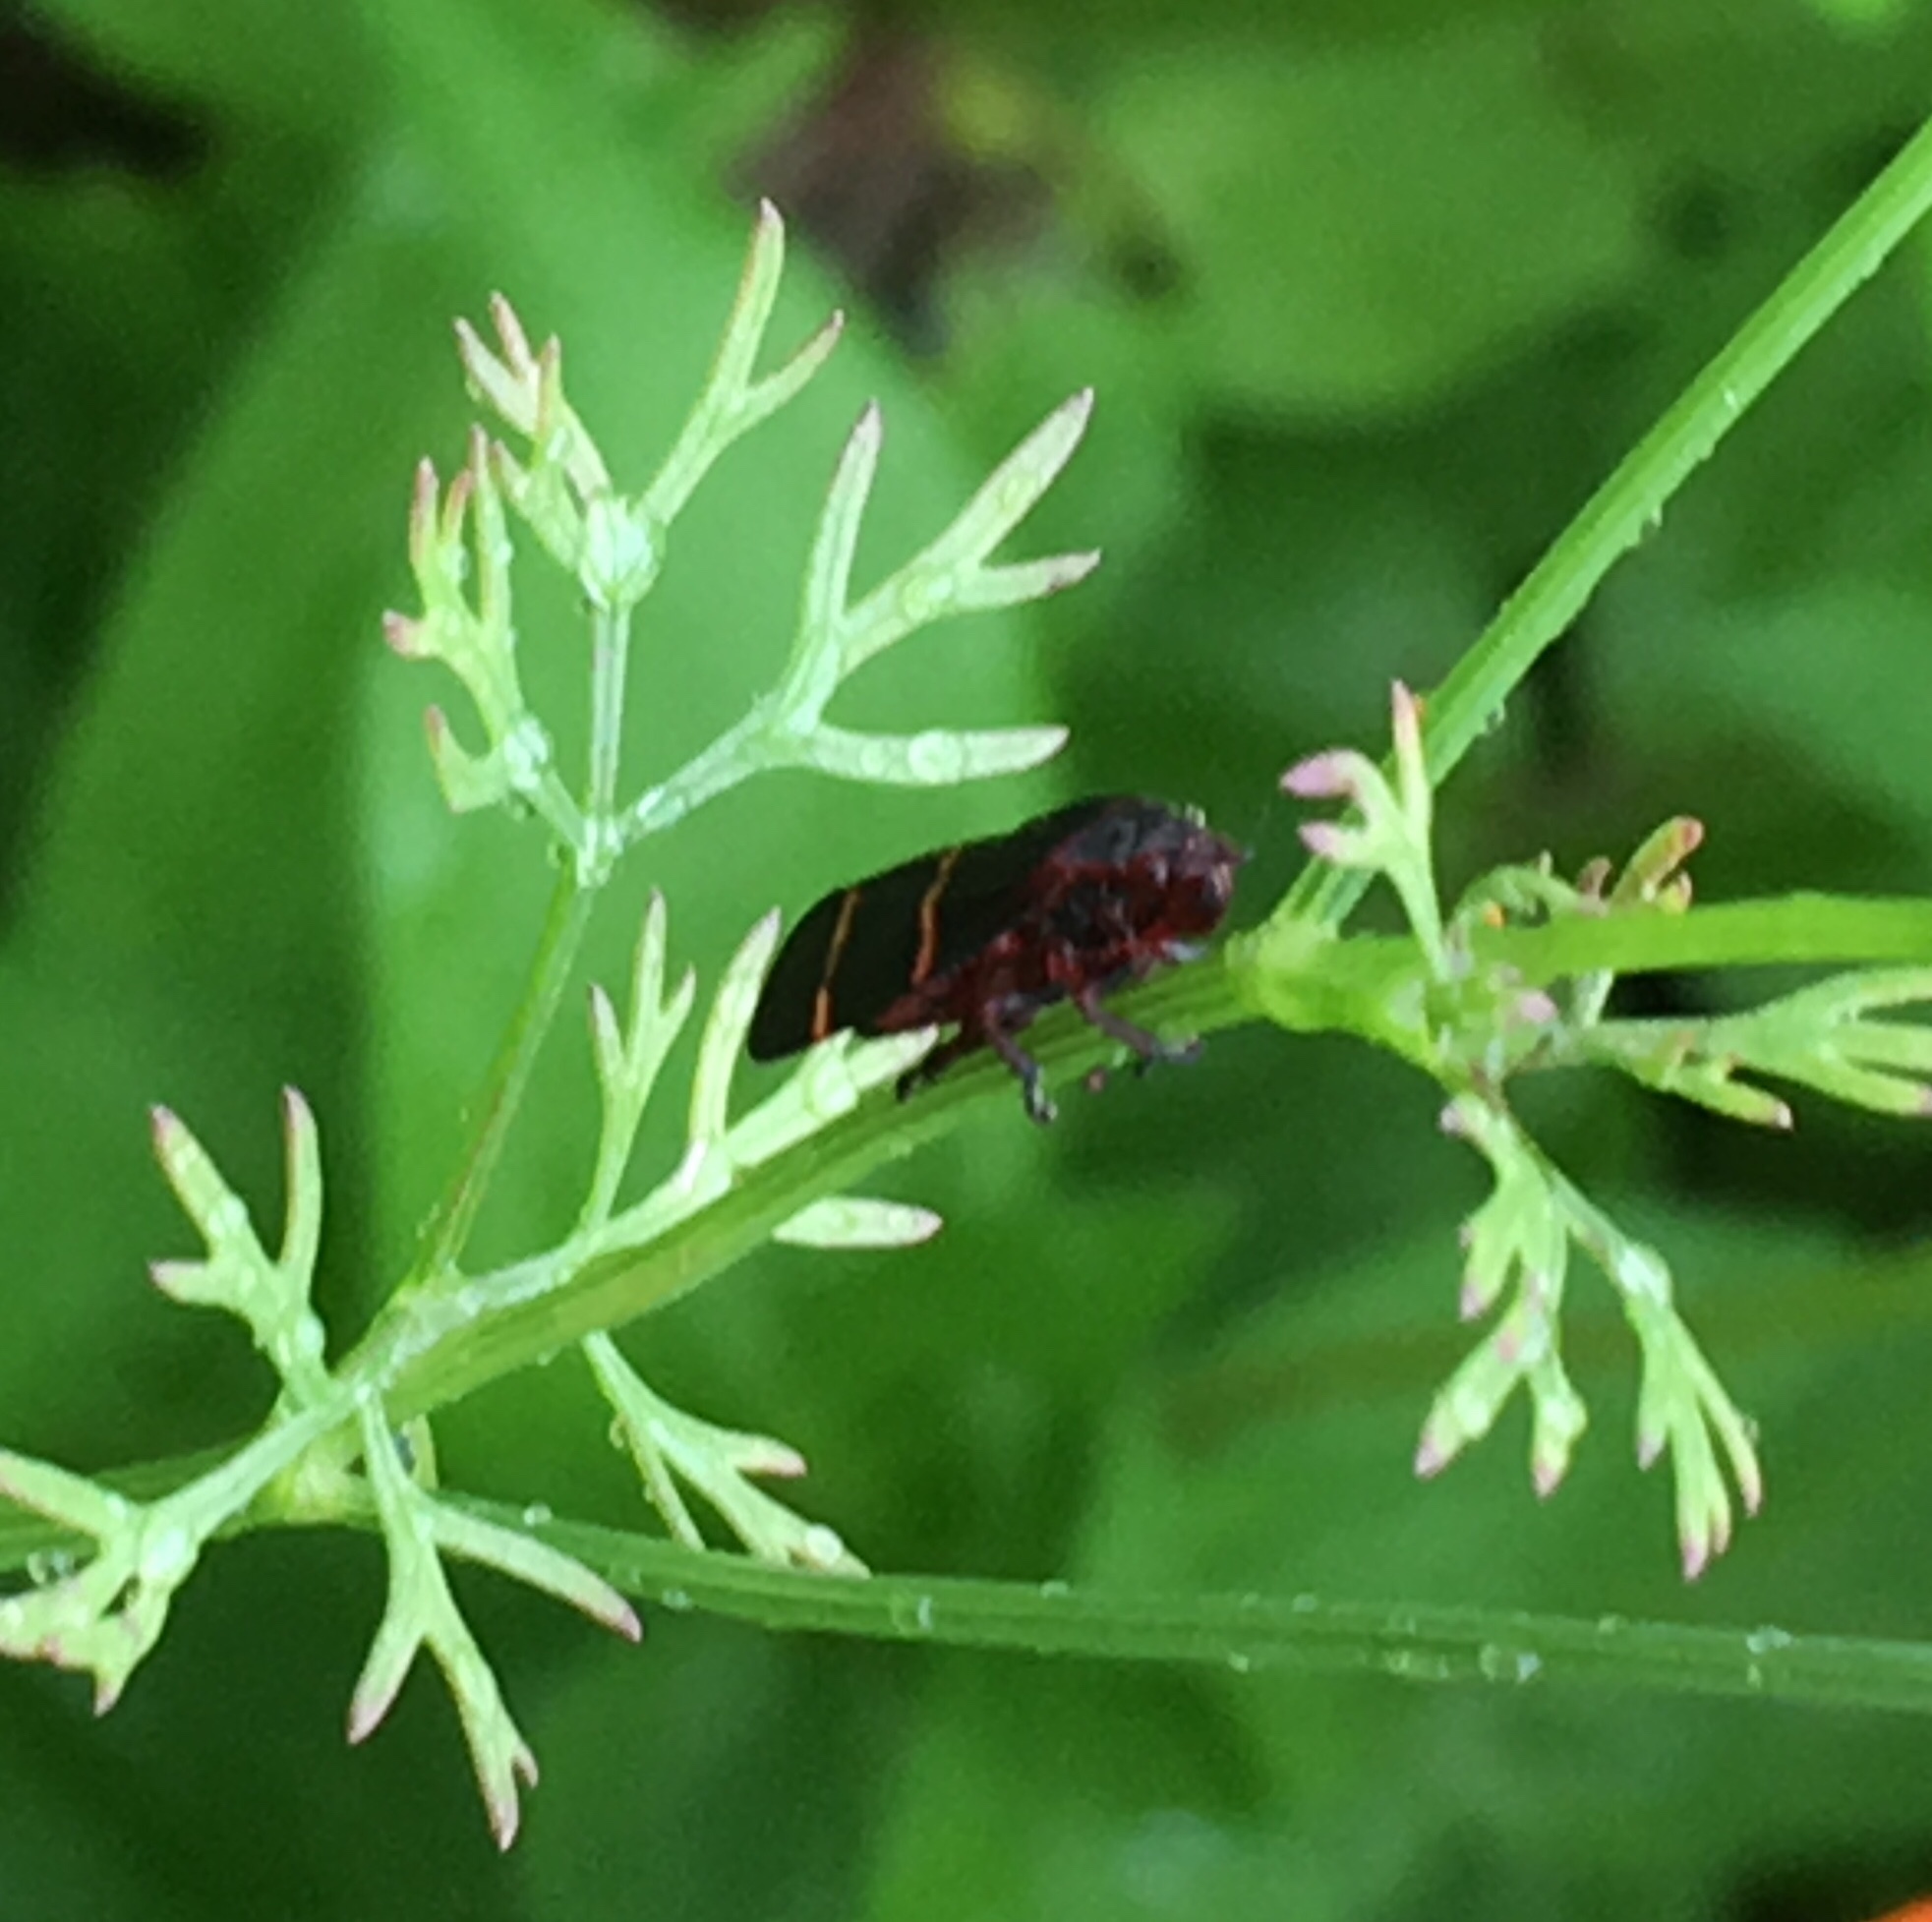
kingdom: Animalia
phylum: Arthropoda
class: Insecta
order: Hemiptera
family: Cercopidae
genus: Prosapia
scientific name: Prosapia bicincta
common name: Twolined spittlebug
